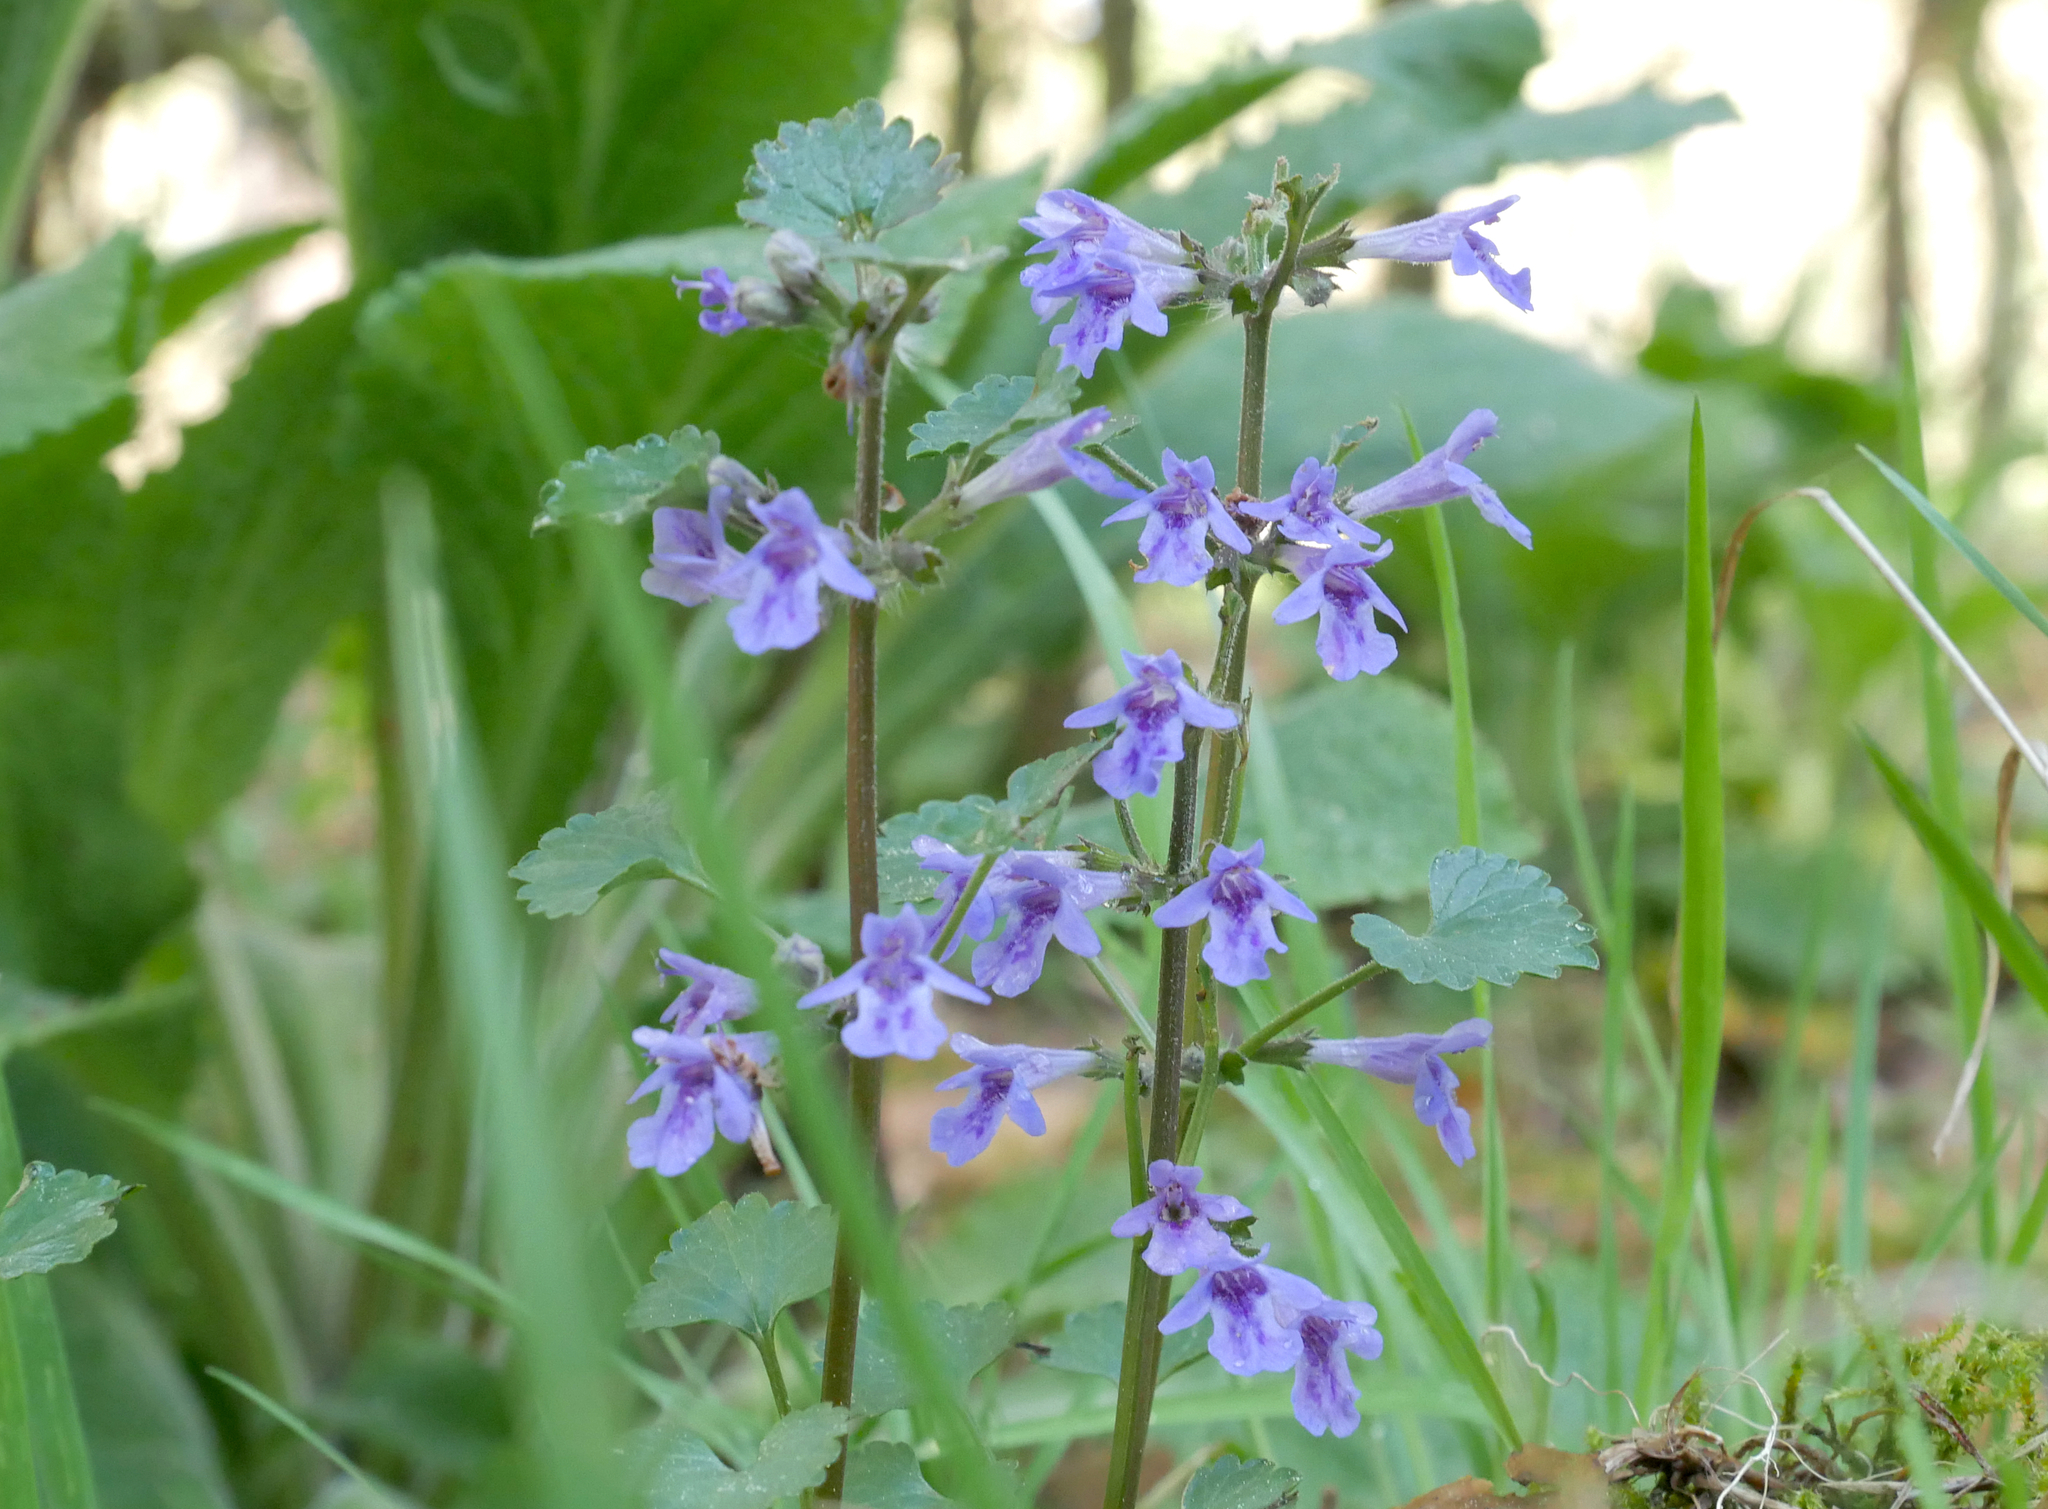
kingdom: Plantae
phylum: Tracheophyta
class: Magnoliopsida
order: Lamiales
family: Lamiaceae
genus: Glechoma
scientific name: Glechoma hederacea
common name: Ground ivy
